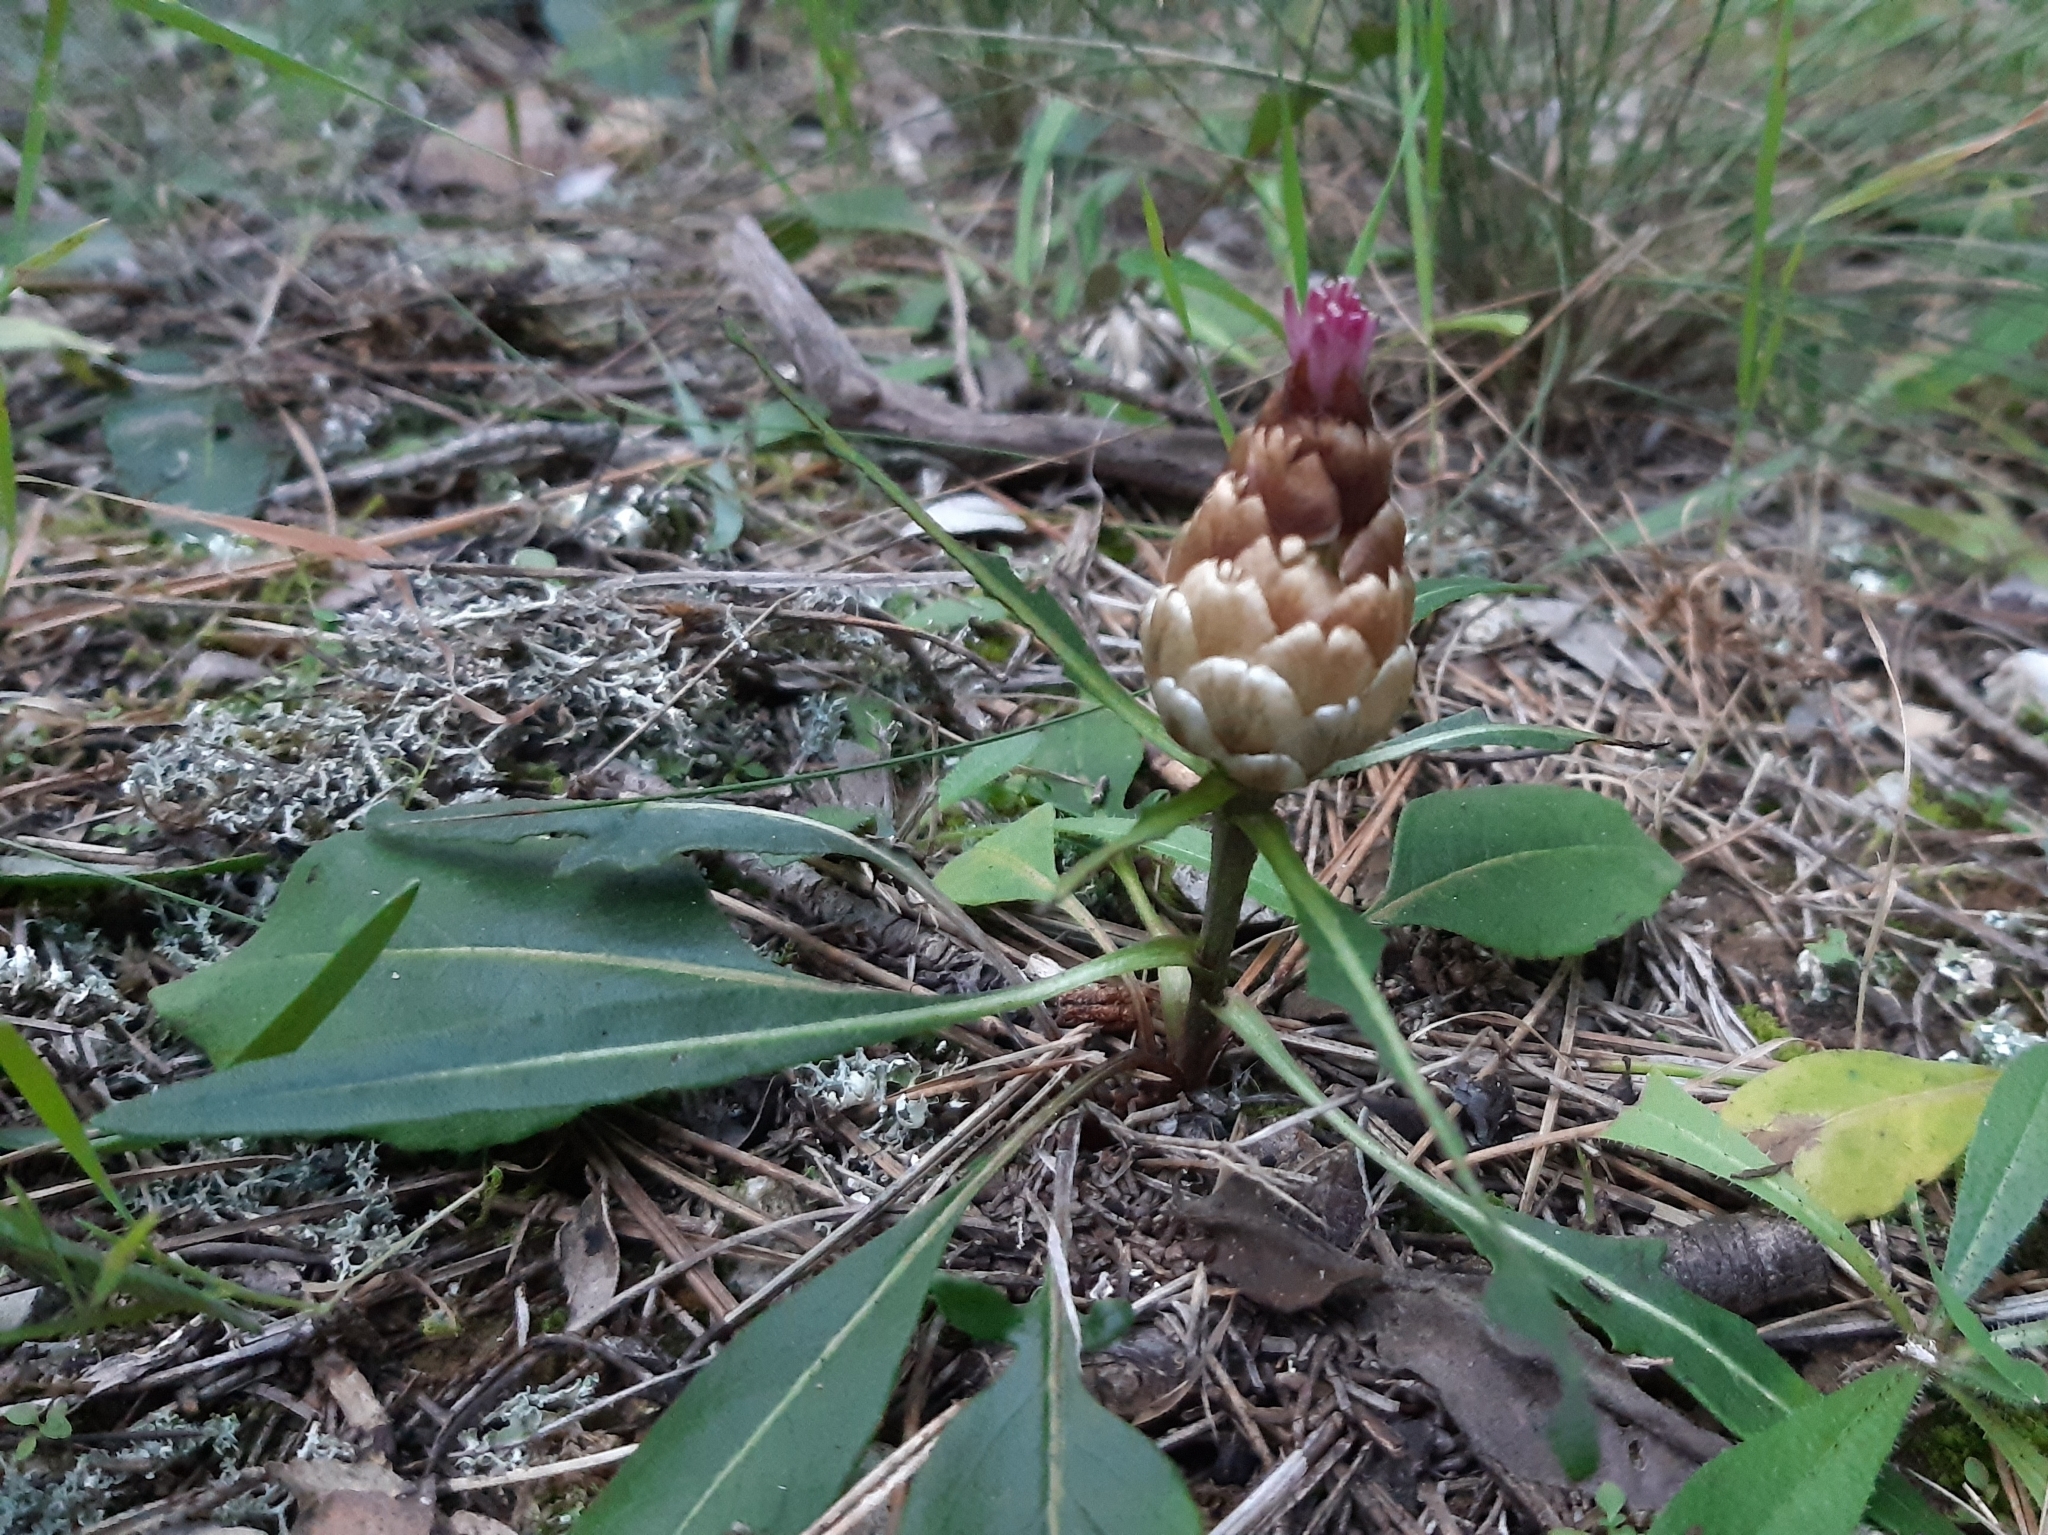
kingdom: Plantae
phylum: Tracheophyta
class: Magnoliopsida
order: Asterales
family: Asteraceae
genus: Leuzea
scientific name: Leuzea conifera
